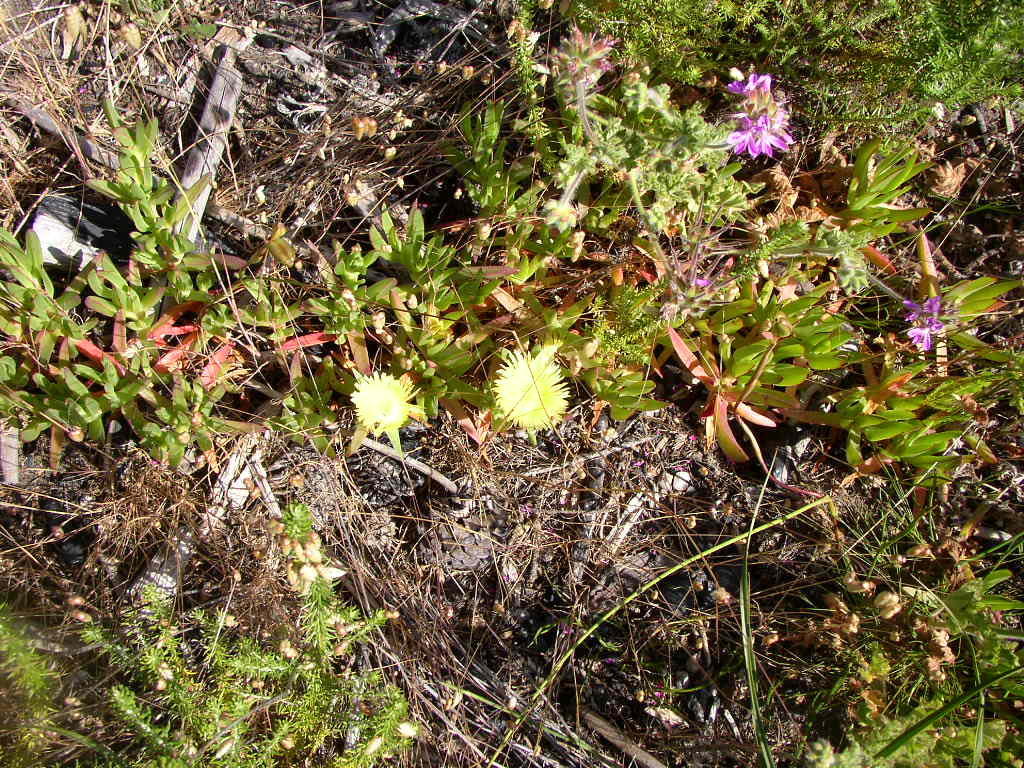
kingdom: Plantae
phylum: Tracheophyta
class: Magnoliopsida
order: Caryophyllales
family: Aizoaceae
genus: Carpobrotus
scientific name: Carpobrotus edulis
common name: Hottentot-fig
